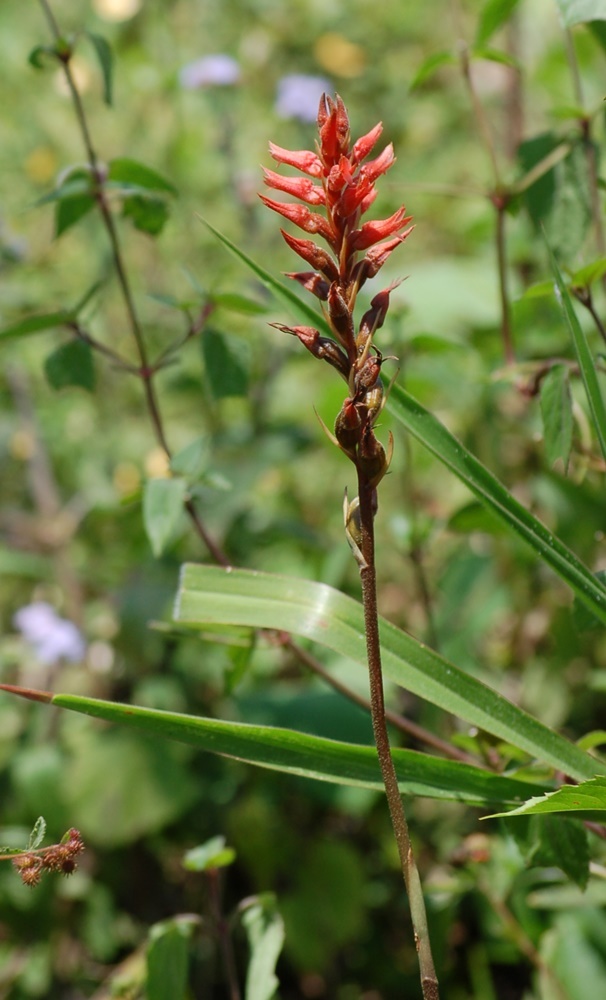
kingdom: Plantae
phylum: Tracheophyta
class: Liliopsida
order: Asparagales
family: Orchidaceae
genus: Sacoila
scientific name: Sacoila lanceolata
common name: Leafless beaked ladiestresses
